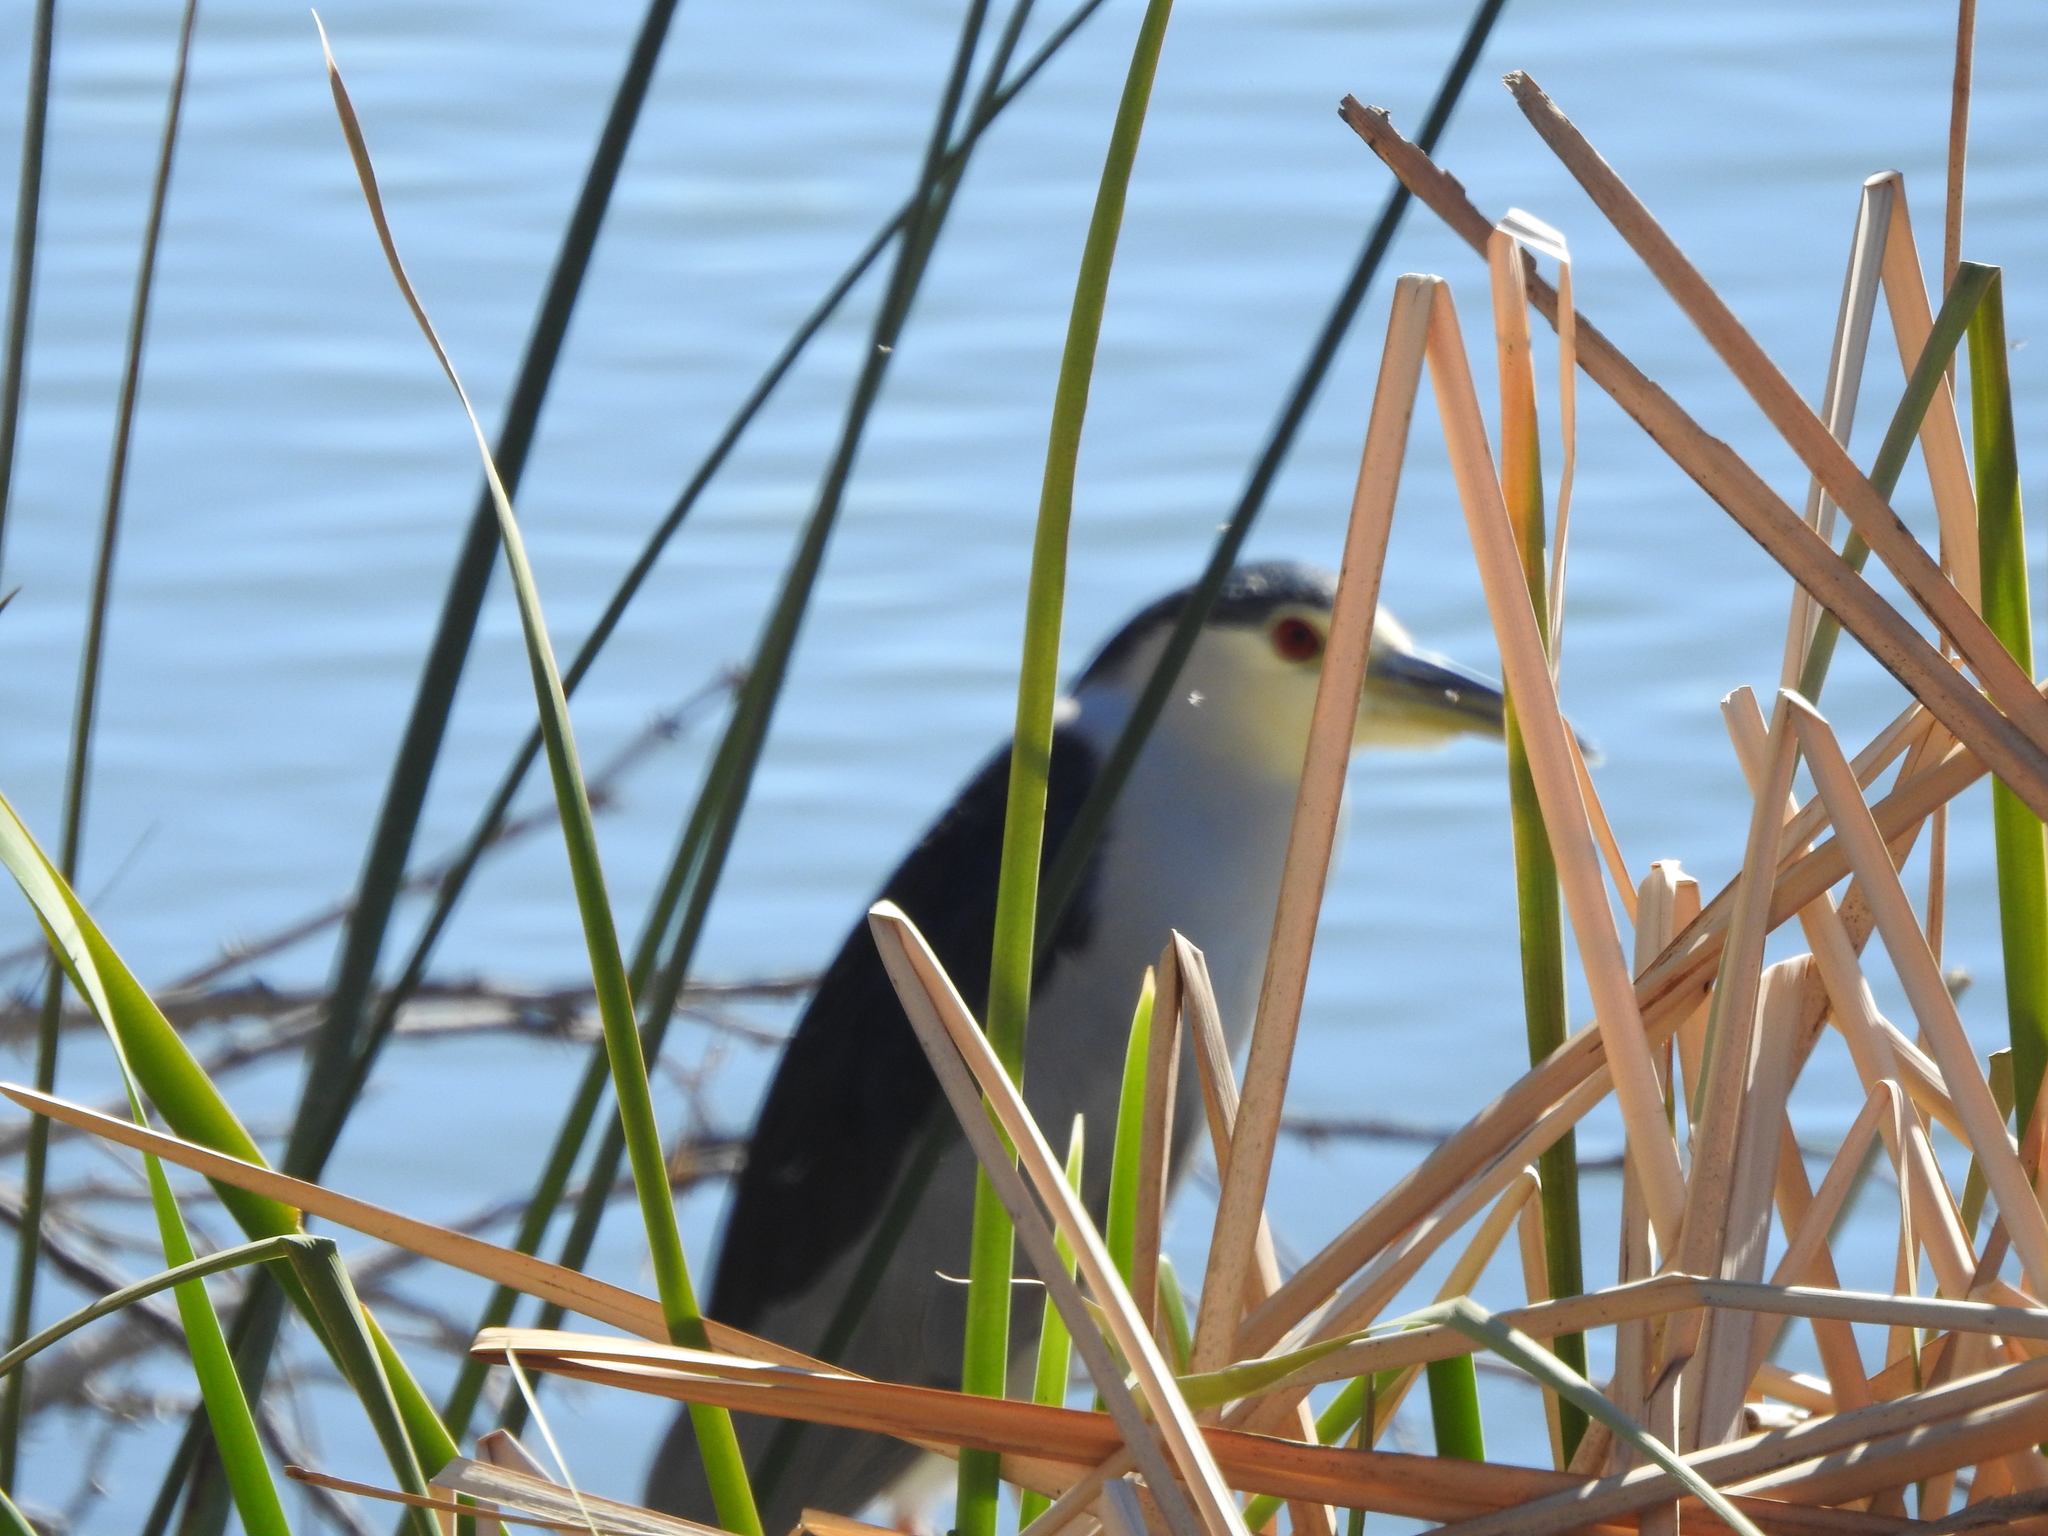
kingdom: Animalia
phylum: Chordata
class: Aves
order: Pelecaniformes
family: Ardeidae
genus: Nycticorax
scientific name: Nycticorax nycticorax
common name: Black-crowned night heron
